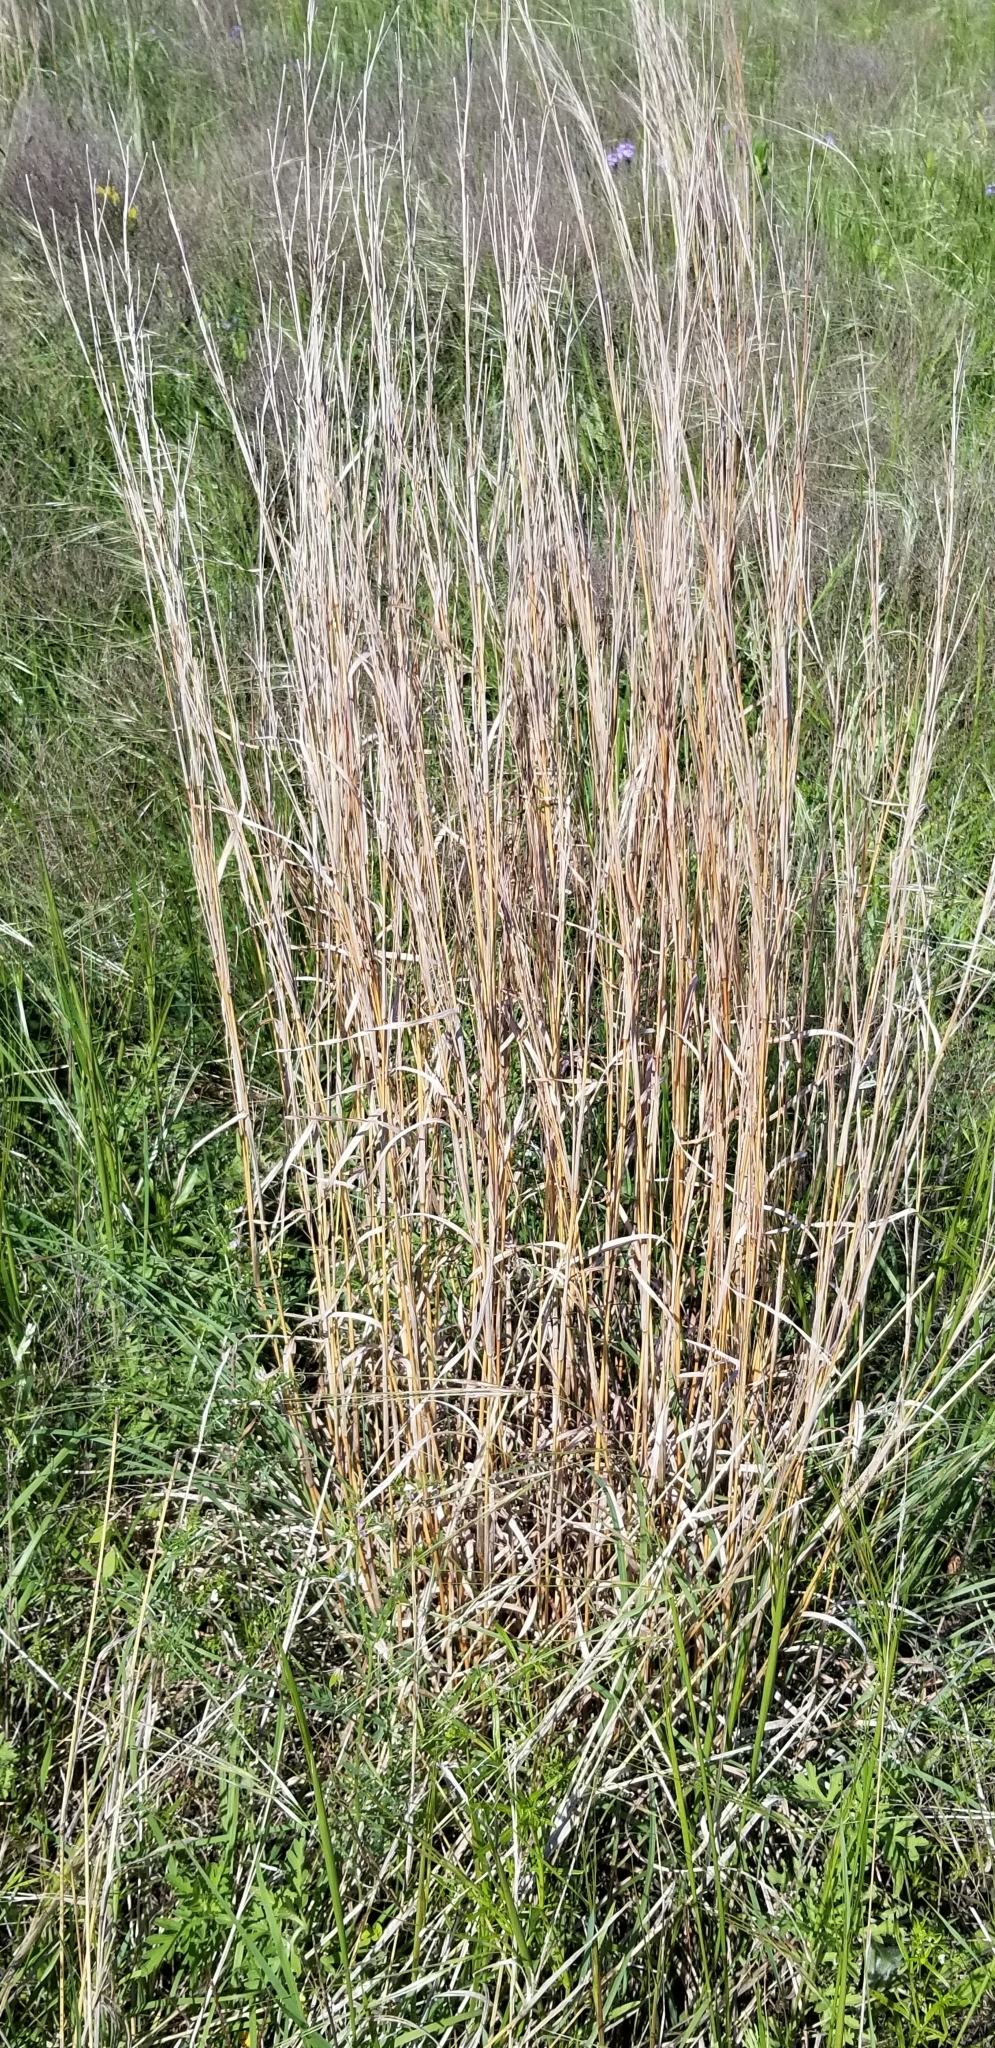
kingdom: Plantae
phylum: Tracheophyta
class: Liliopsida
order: Poales
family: Poaceae
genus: Schizachyrium
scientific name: Schizachyrium scoparium
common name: Little bluestem
